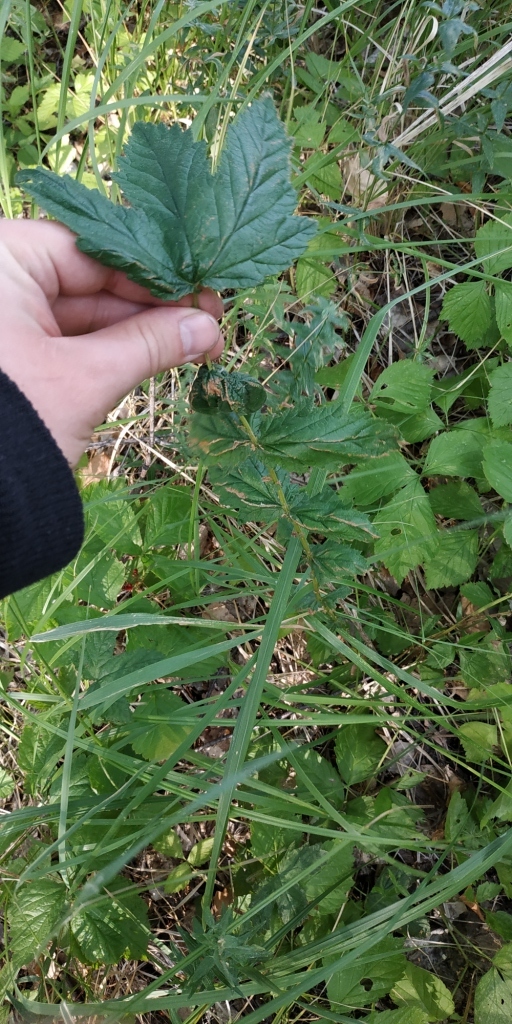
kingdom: Plantae
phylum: Tracheophyta
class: Magnoliopsida
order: Rosales
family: Rosaceae
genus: Filipendula
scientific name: Filipendula ulmaria
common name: Meadowsweet
